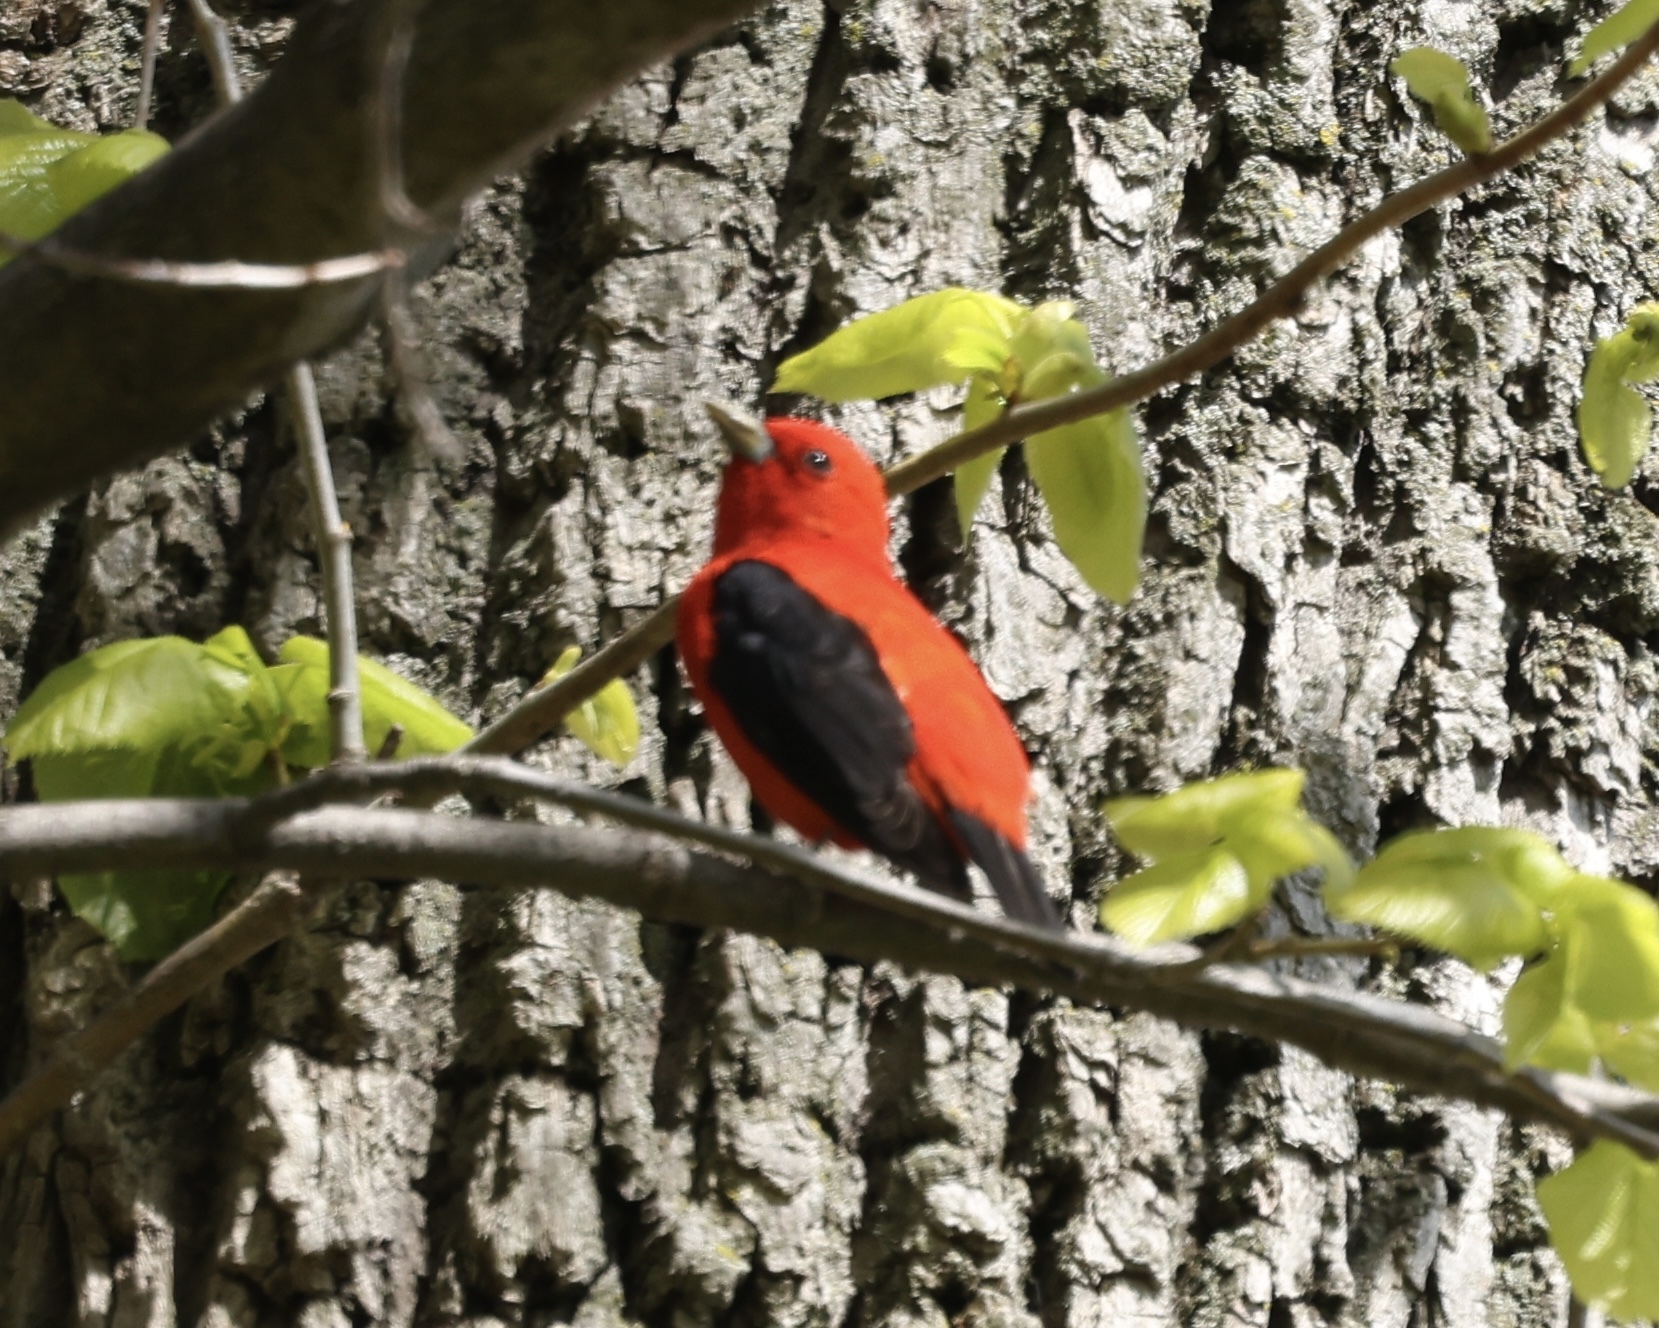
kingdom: Animalia
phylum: Chordata
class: Aves
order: Passeriformes
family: Cardinalidae
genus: Piranga
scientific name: Piranga olivacea
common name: Scarlet tanager
